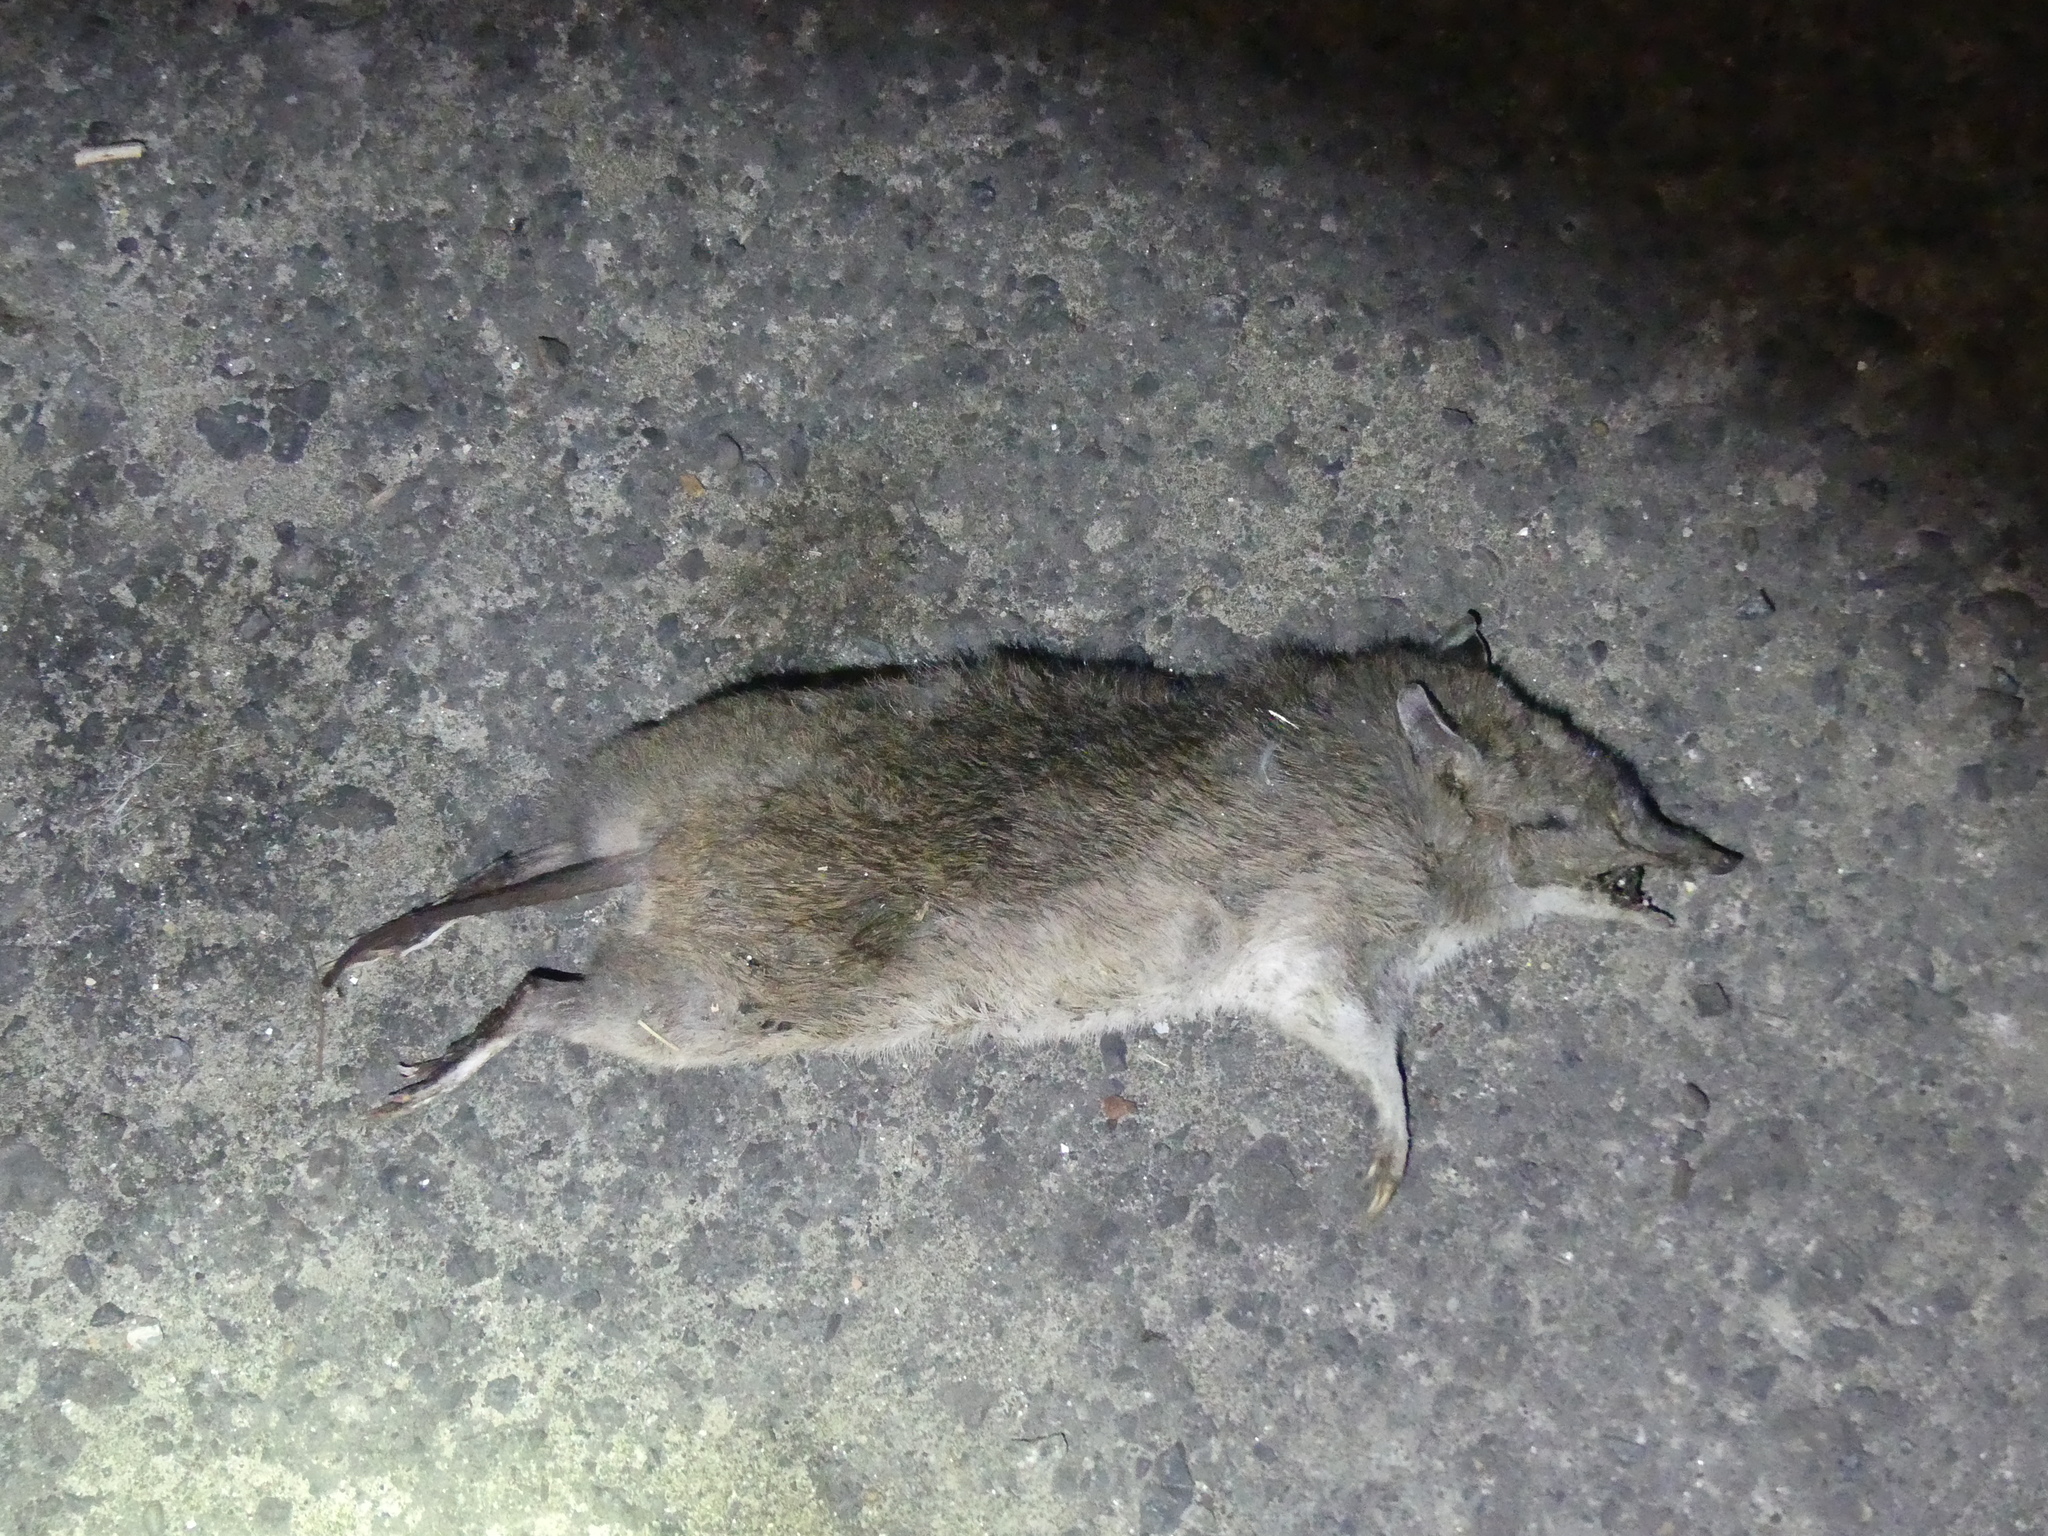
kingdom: Animalia
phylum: Chordata
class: Mammalia
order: Peramelemorphia
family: Peramelidae
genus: Perameles
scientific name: Perameles nasuta
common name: Long-nosed bandicoot
